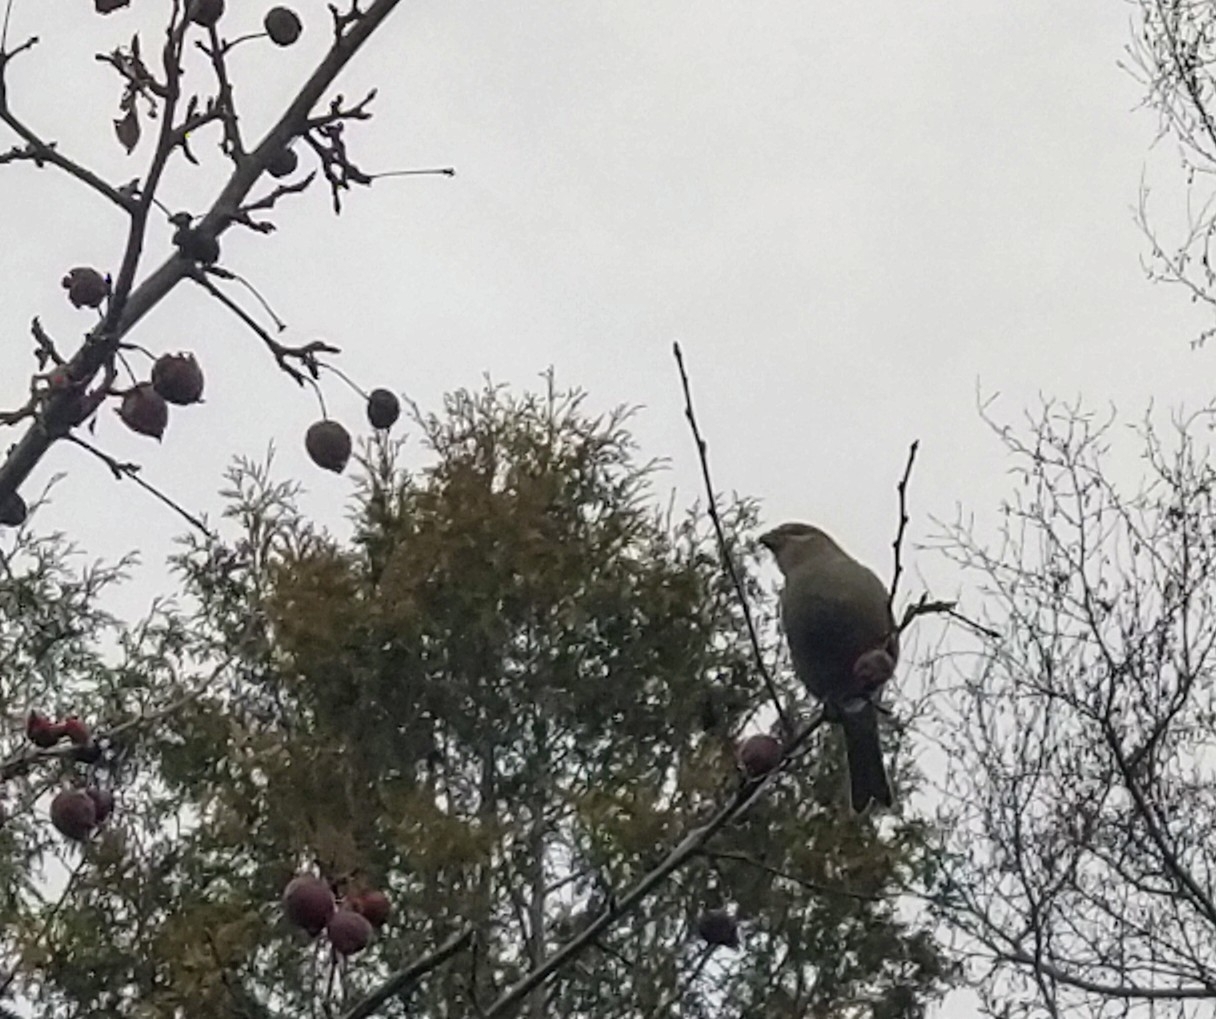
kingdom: Animalia
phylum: Chordata
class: Aves
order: Passeriformes
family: Fringillidae
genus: Pinicola
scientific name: Pinicola enucleator
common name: Pine grosbeak
